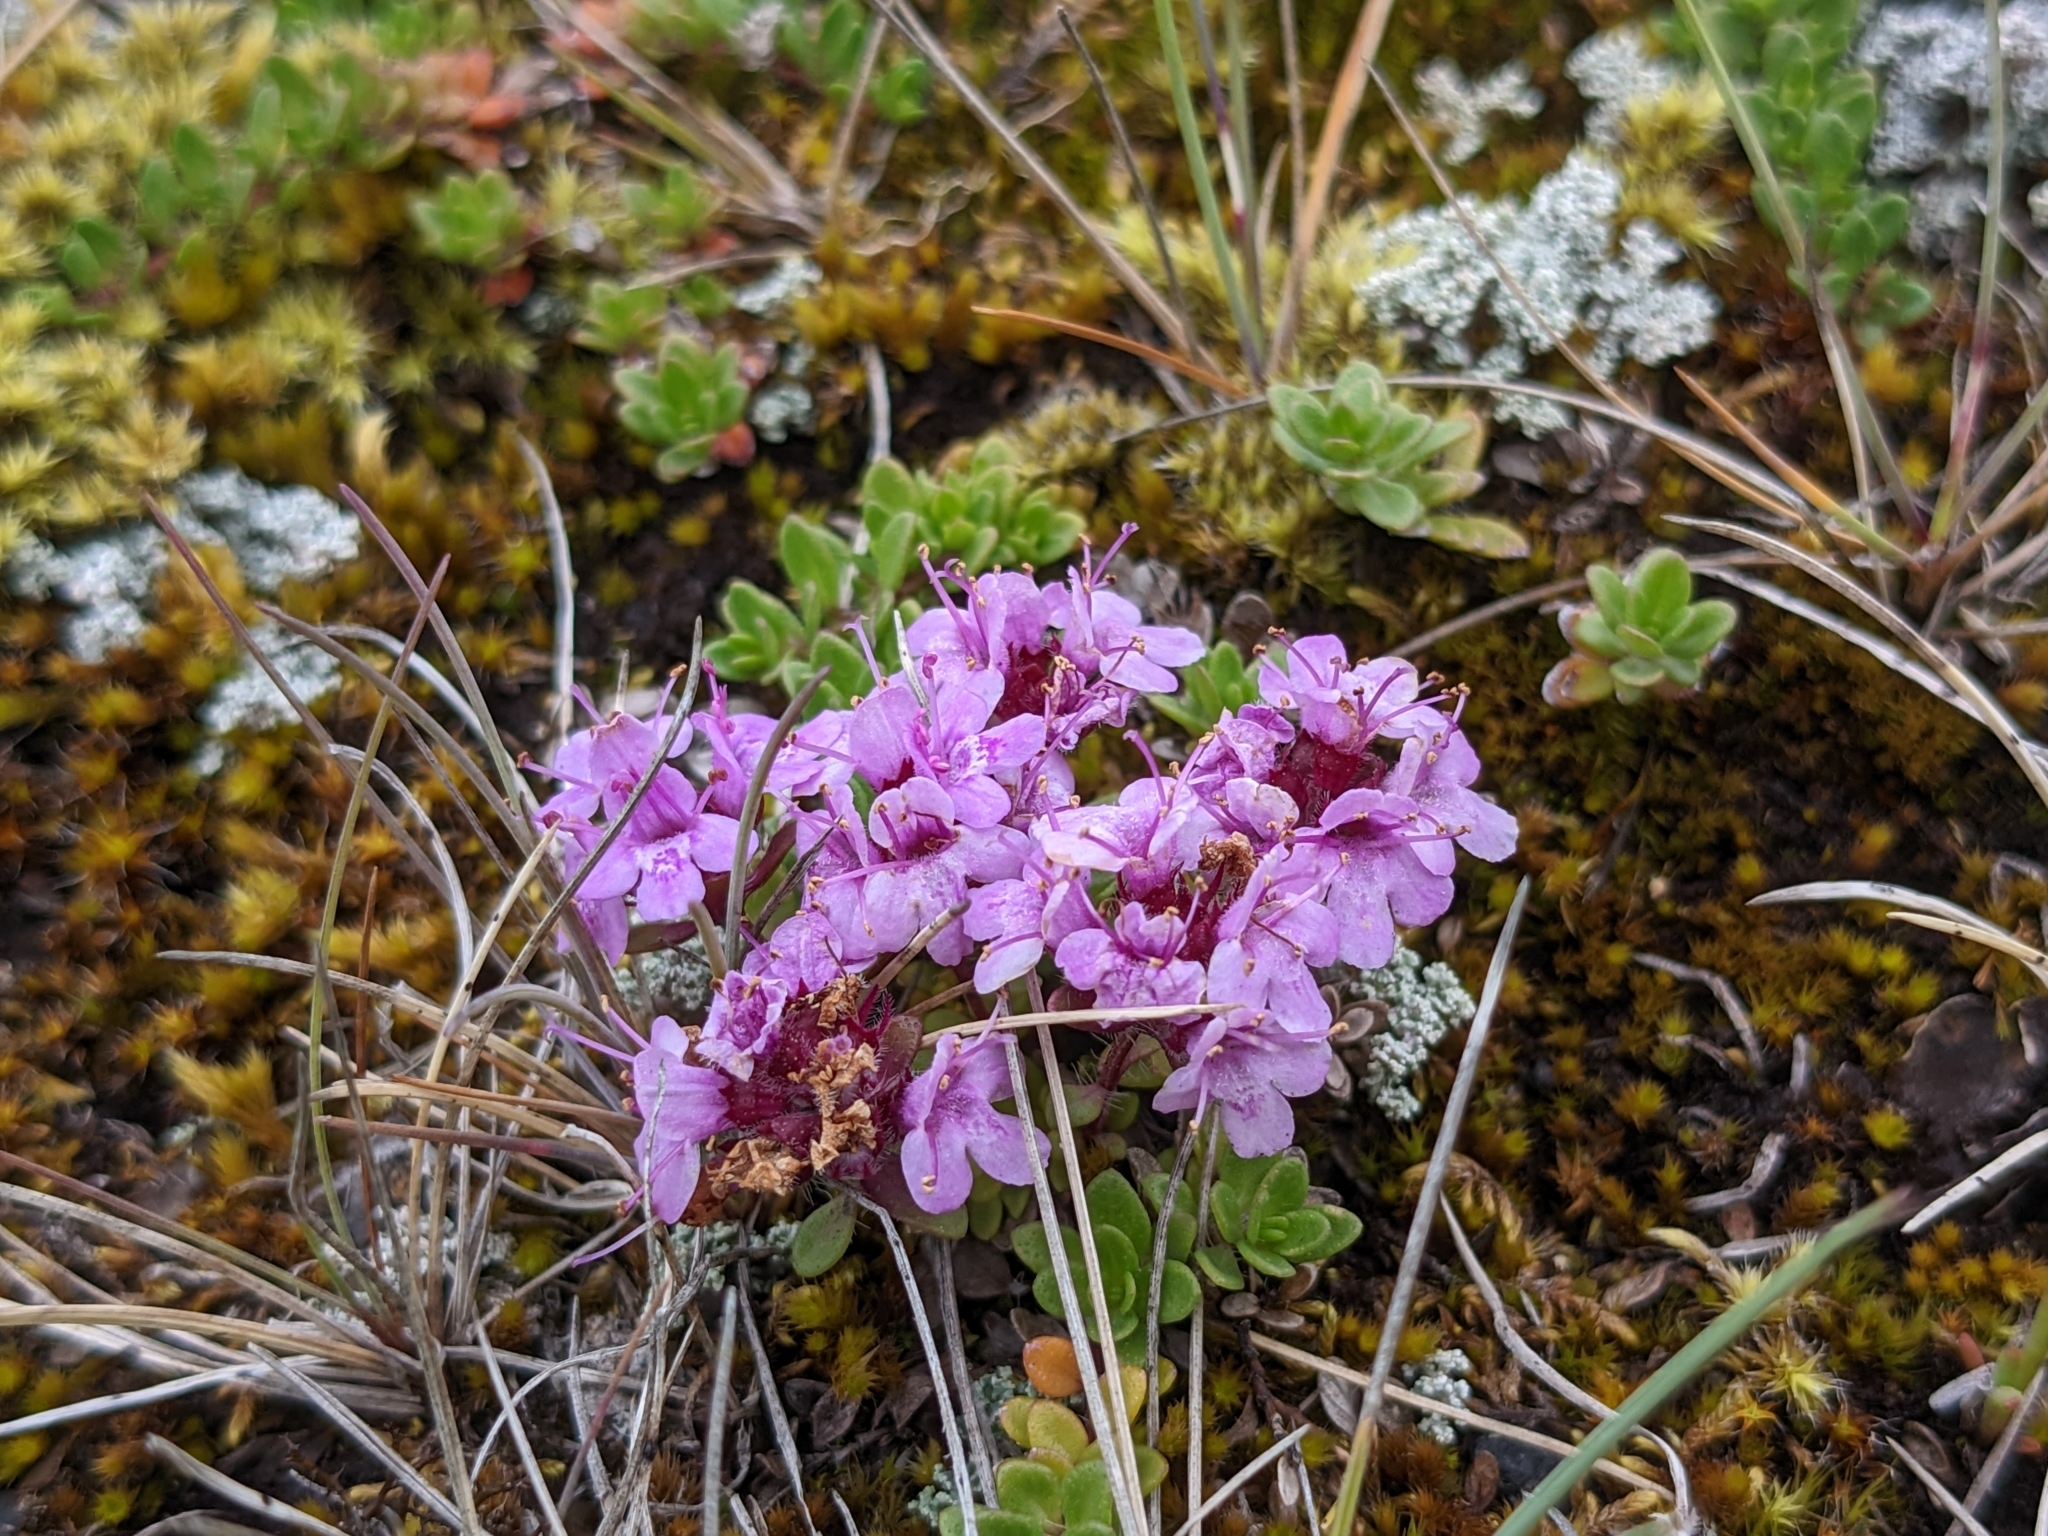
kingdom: Plantae
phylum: Tracheophyta
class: Magnoliopsida
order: Lamiales
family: Lamiaceae
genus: Thymus
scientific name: Thymus praecox
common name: Wild thyme
